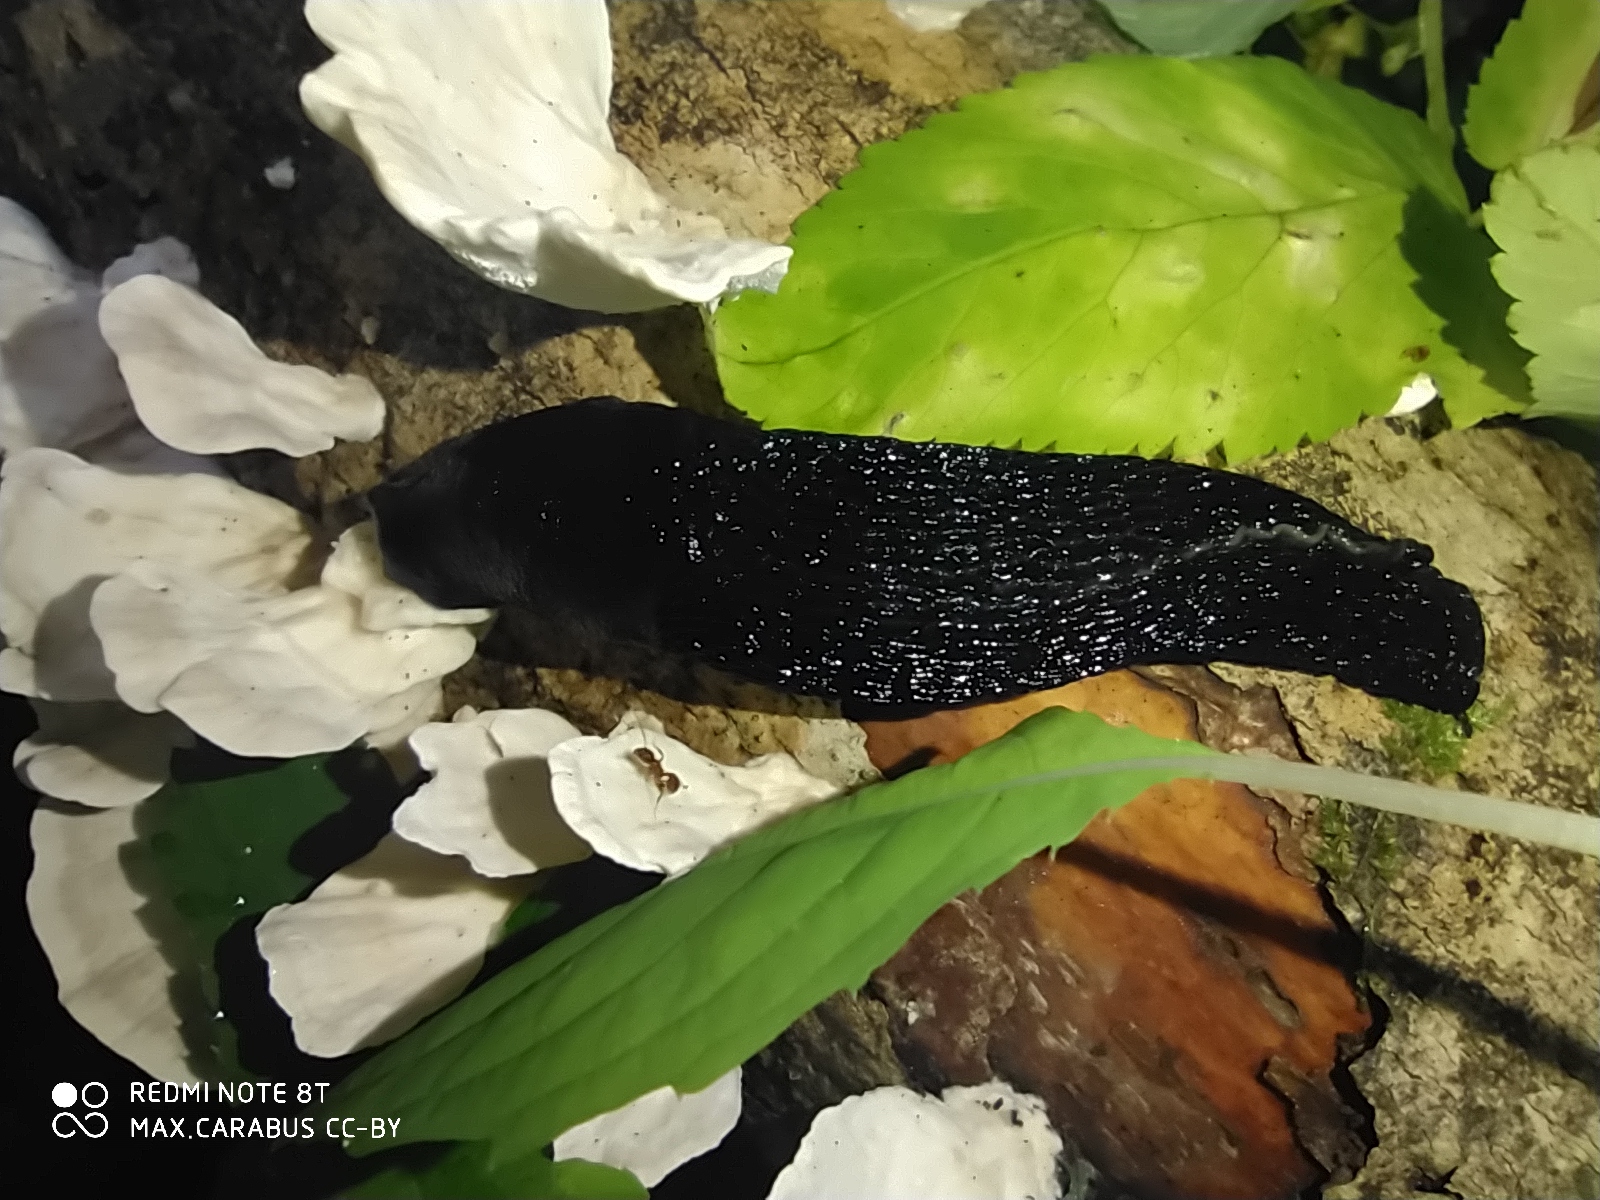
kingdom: Animalia
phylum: Mollusca
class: Gastropoda
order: Stylommatophora
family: Limacidae
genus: Limax
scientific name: Limax cinereoniger
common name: Ash-black slug
